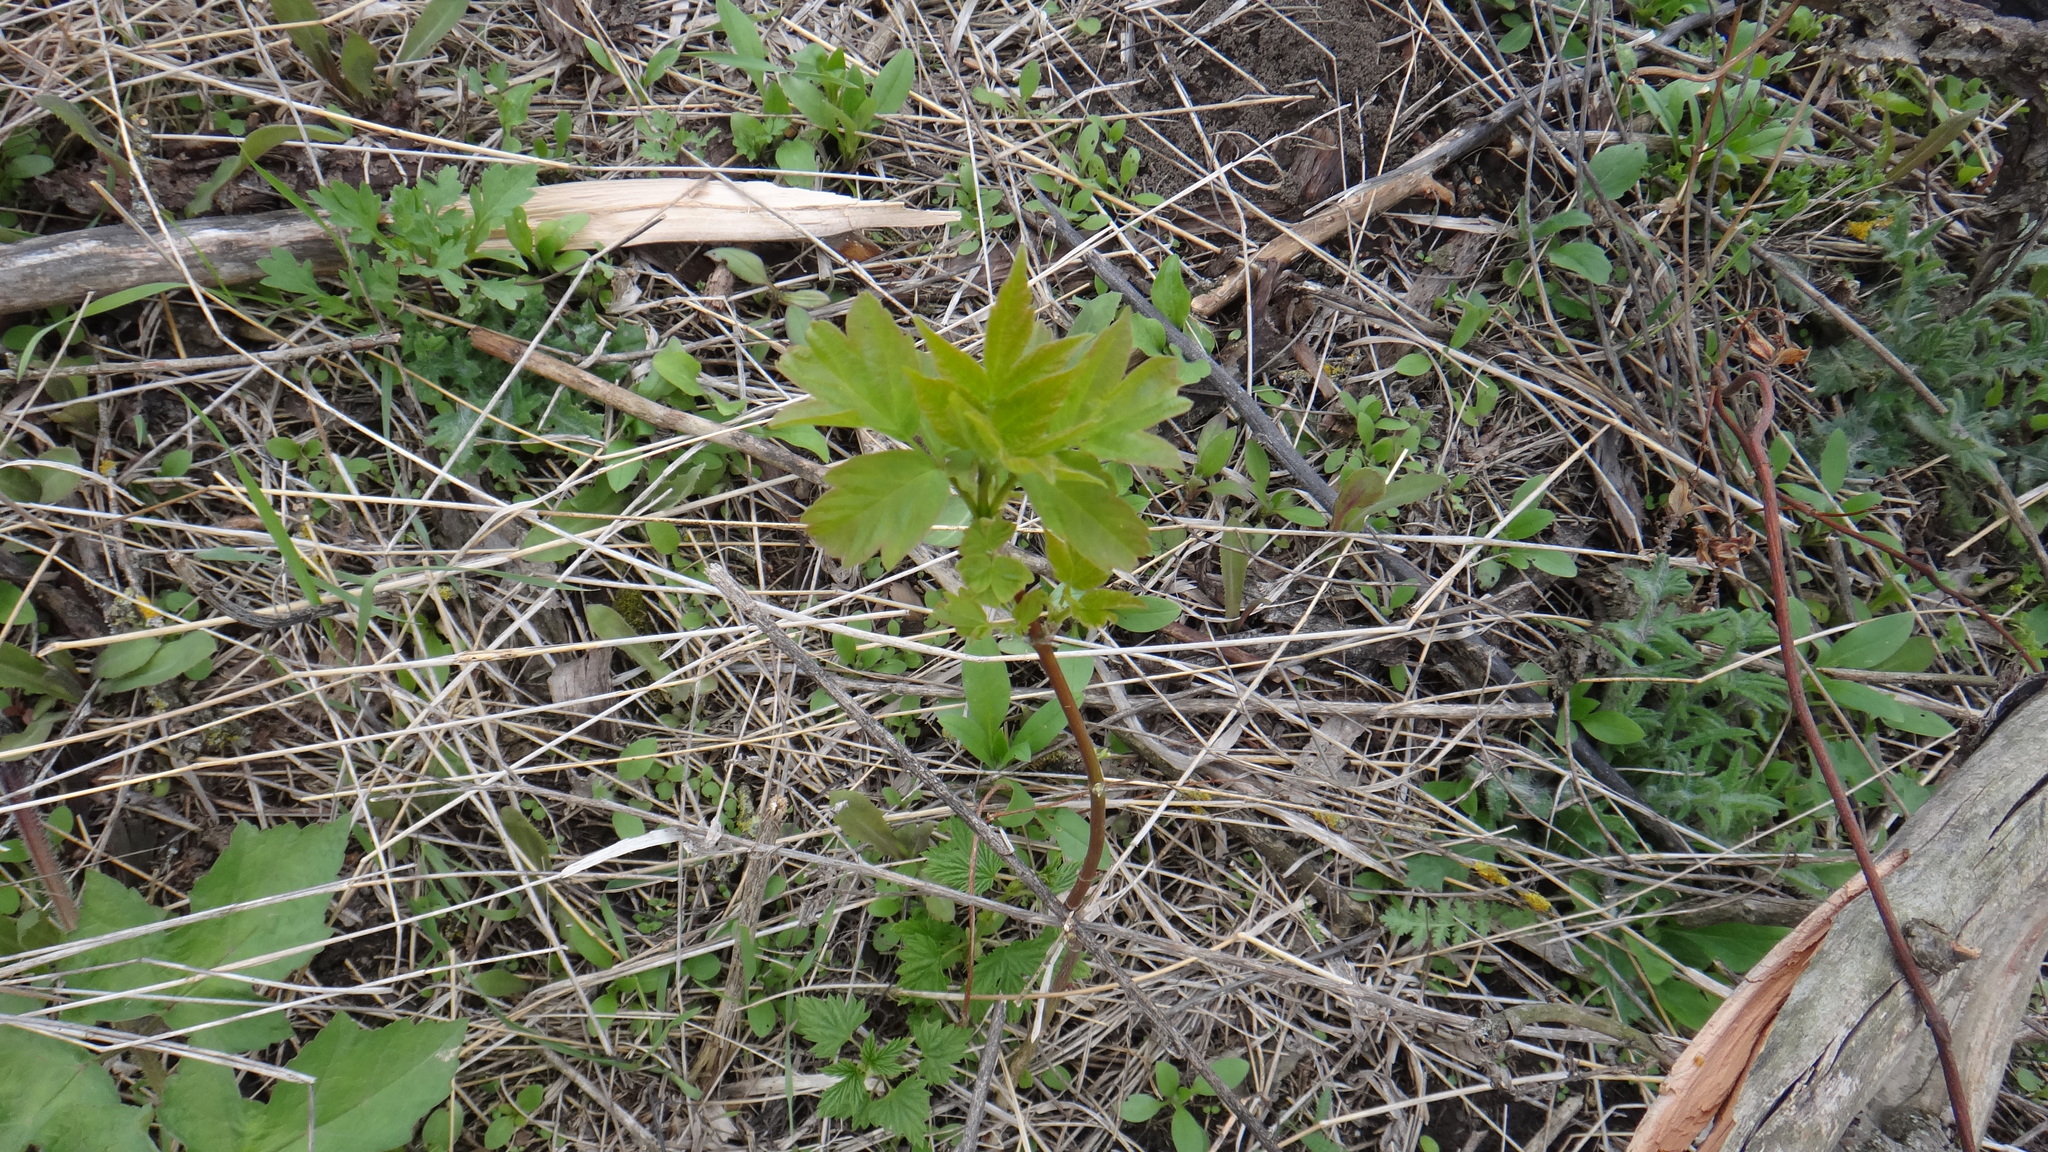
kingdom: Plantae
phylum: Tracheophyta
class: Magnoliopsida
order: Sapindales
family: Sapindaceae
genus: Acer
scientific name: Acer negundo
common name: Ashleaf maple
